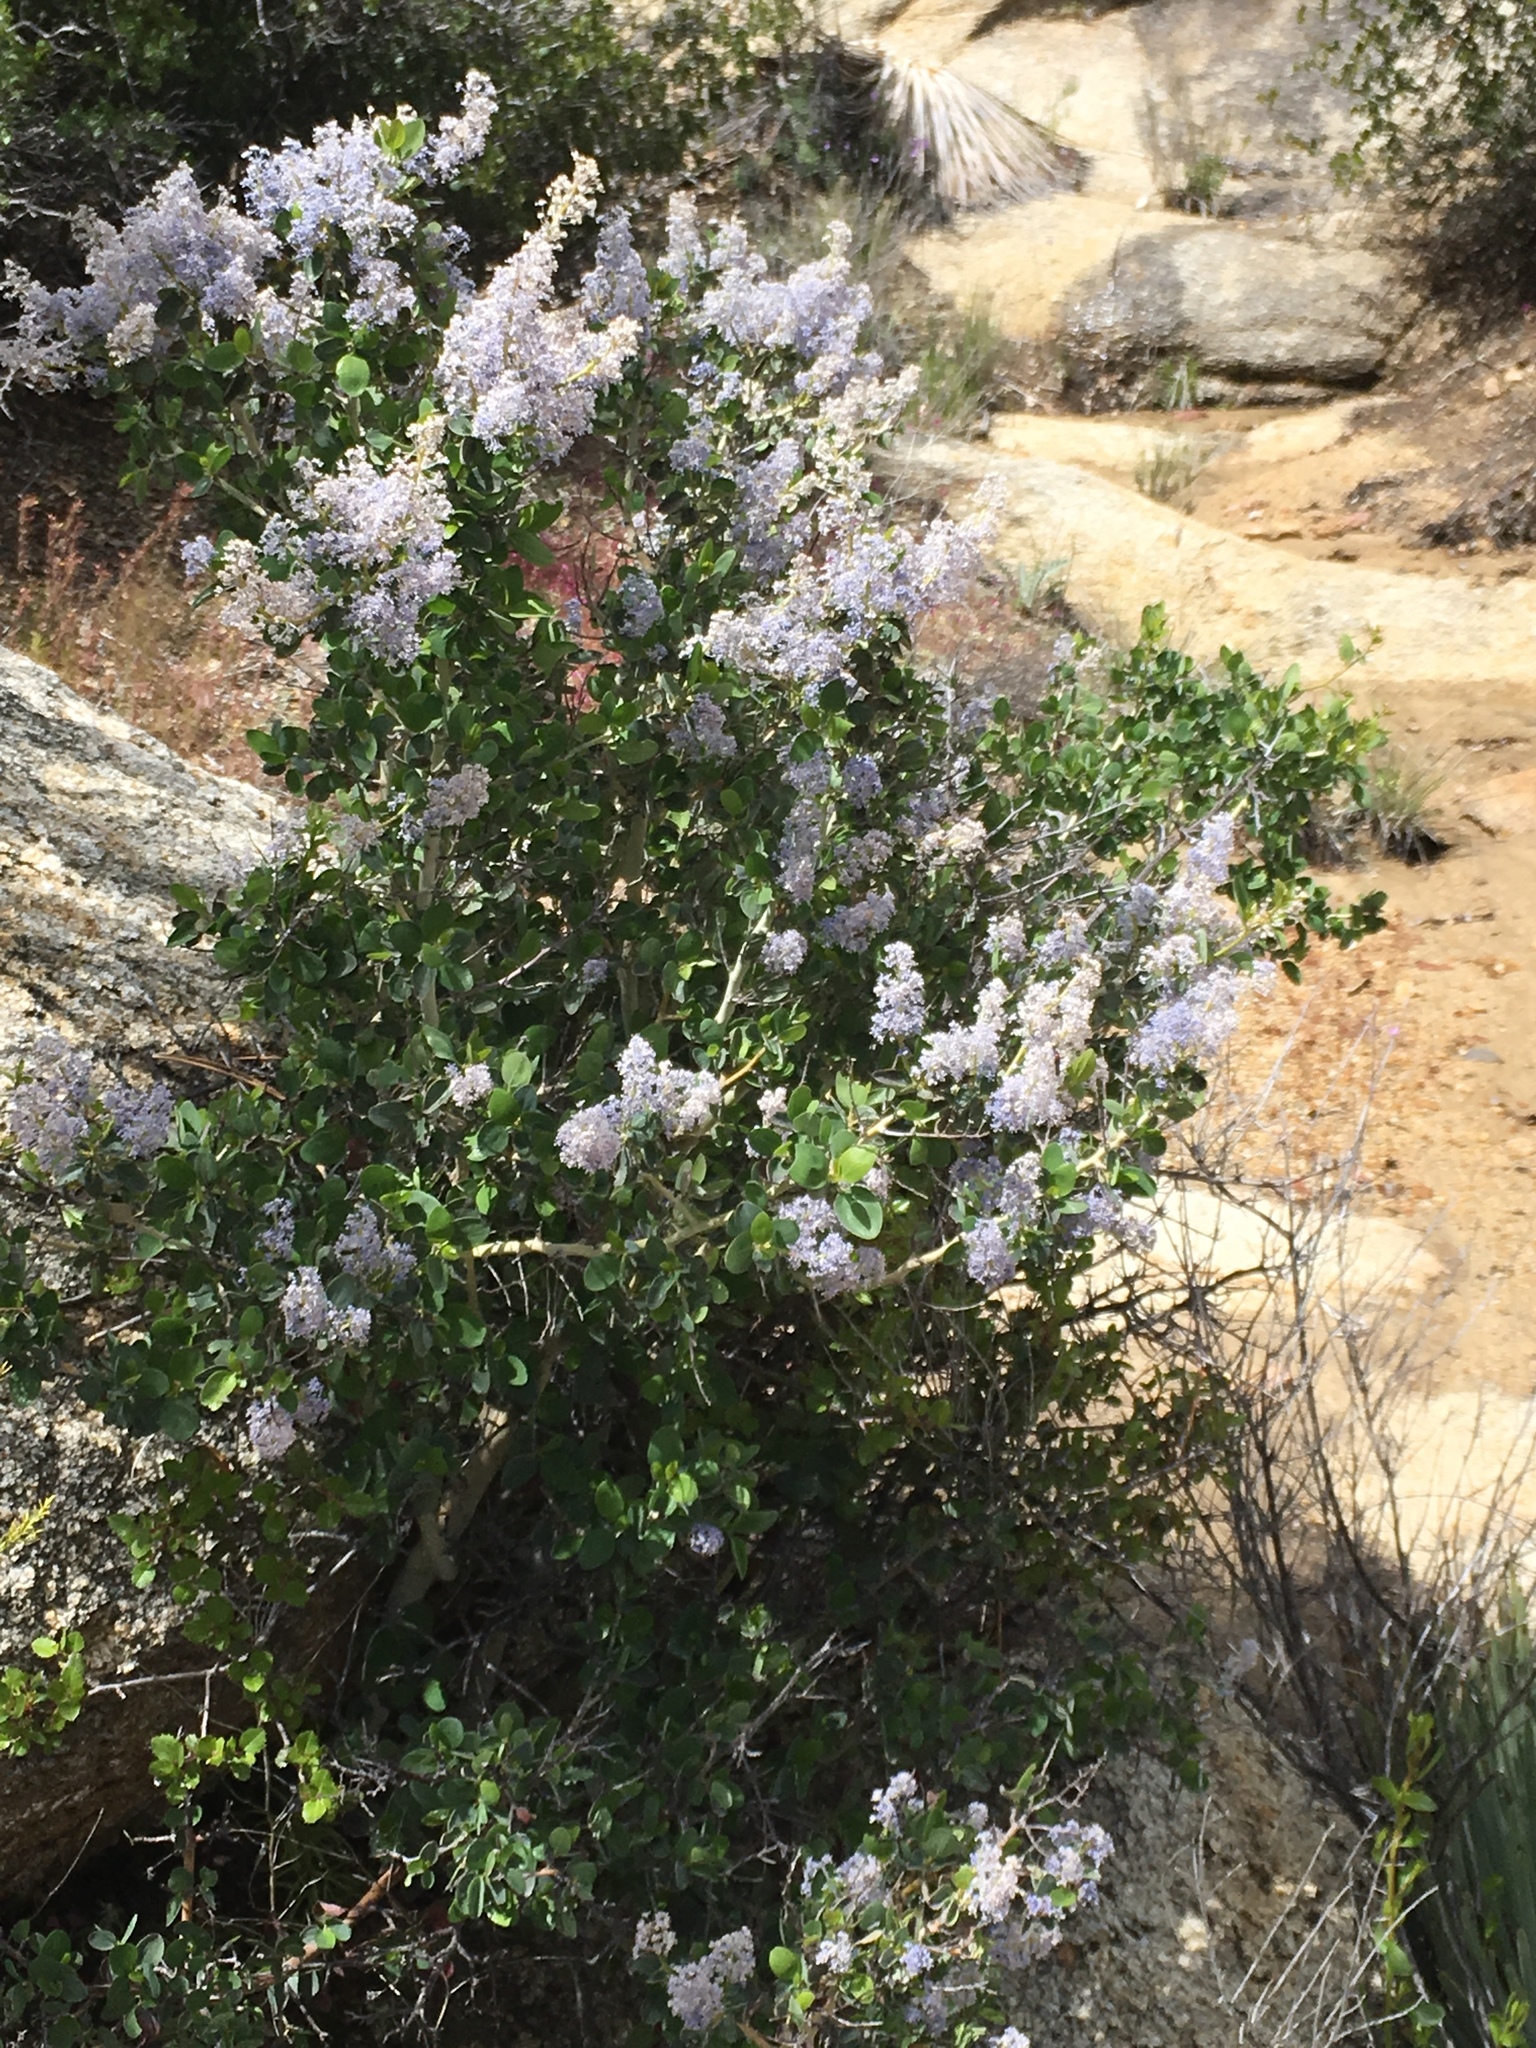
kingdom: Plantae
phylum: Tracheophyta
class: Magnoliopsida
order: Rosales
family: Rhamnaceae
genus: Ceanothus
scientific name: Ceanothus leucodermis
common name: Chaparral whitethorn
